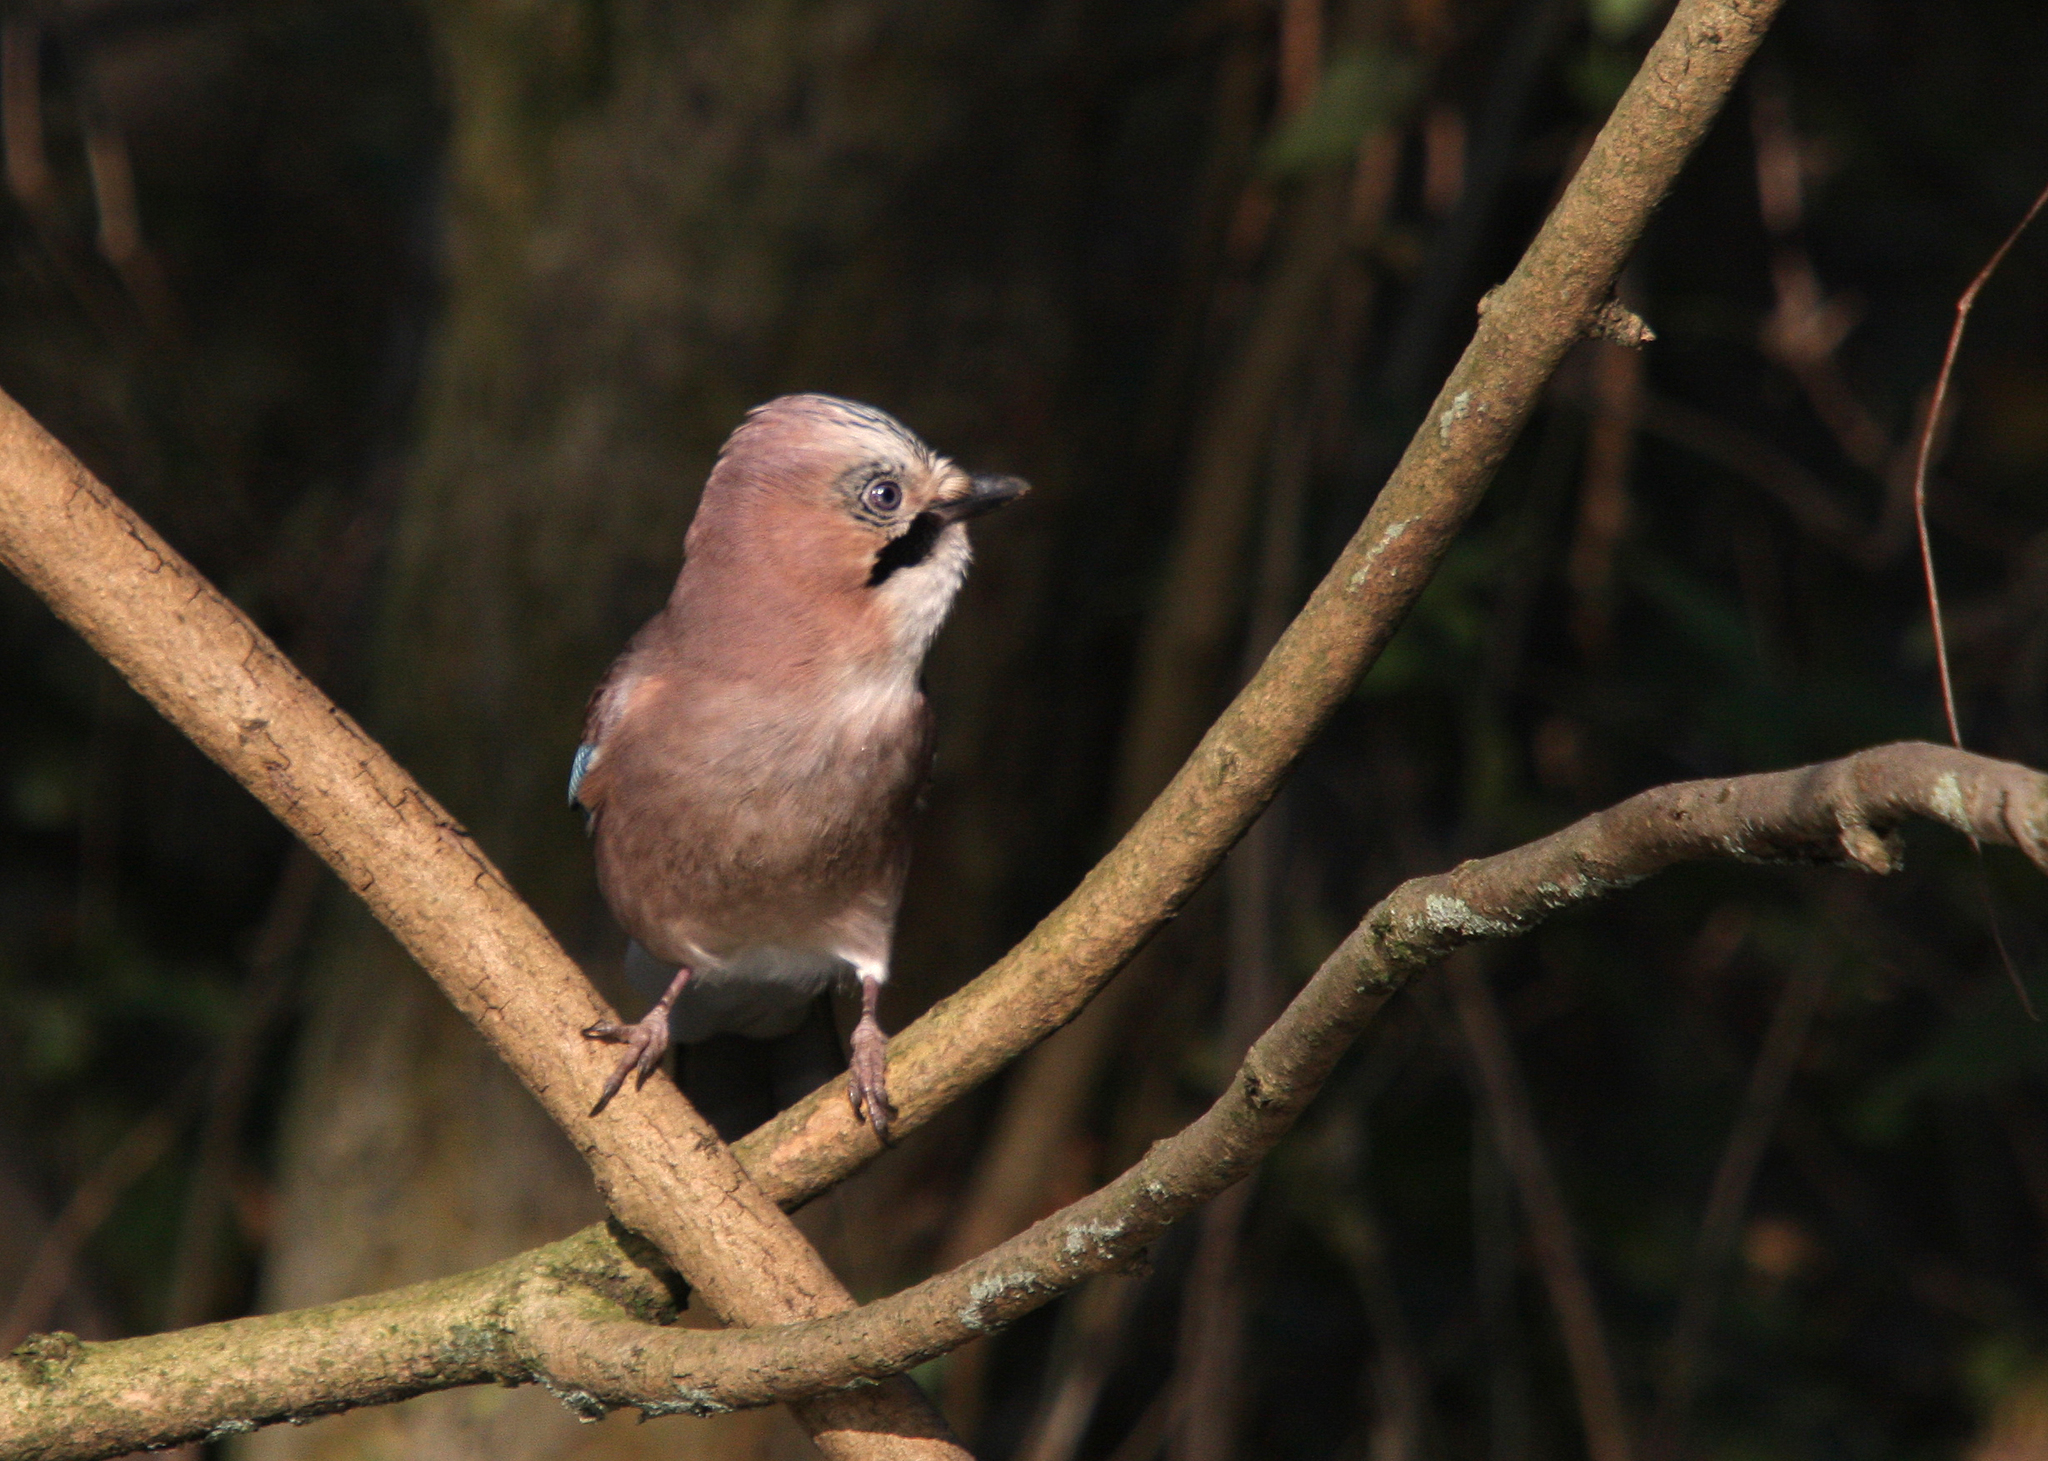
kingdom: Animalia
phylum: Chordata
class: Aves
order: Passeriformes
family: Corvidae
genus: Garrulus
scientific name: Garrulus glandarius
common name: Eurasian jay
